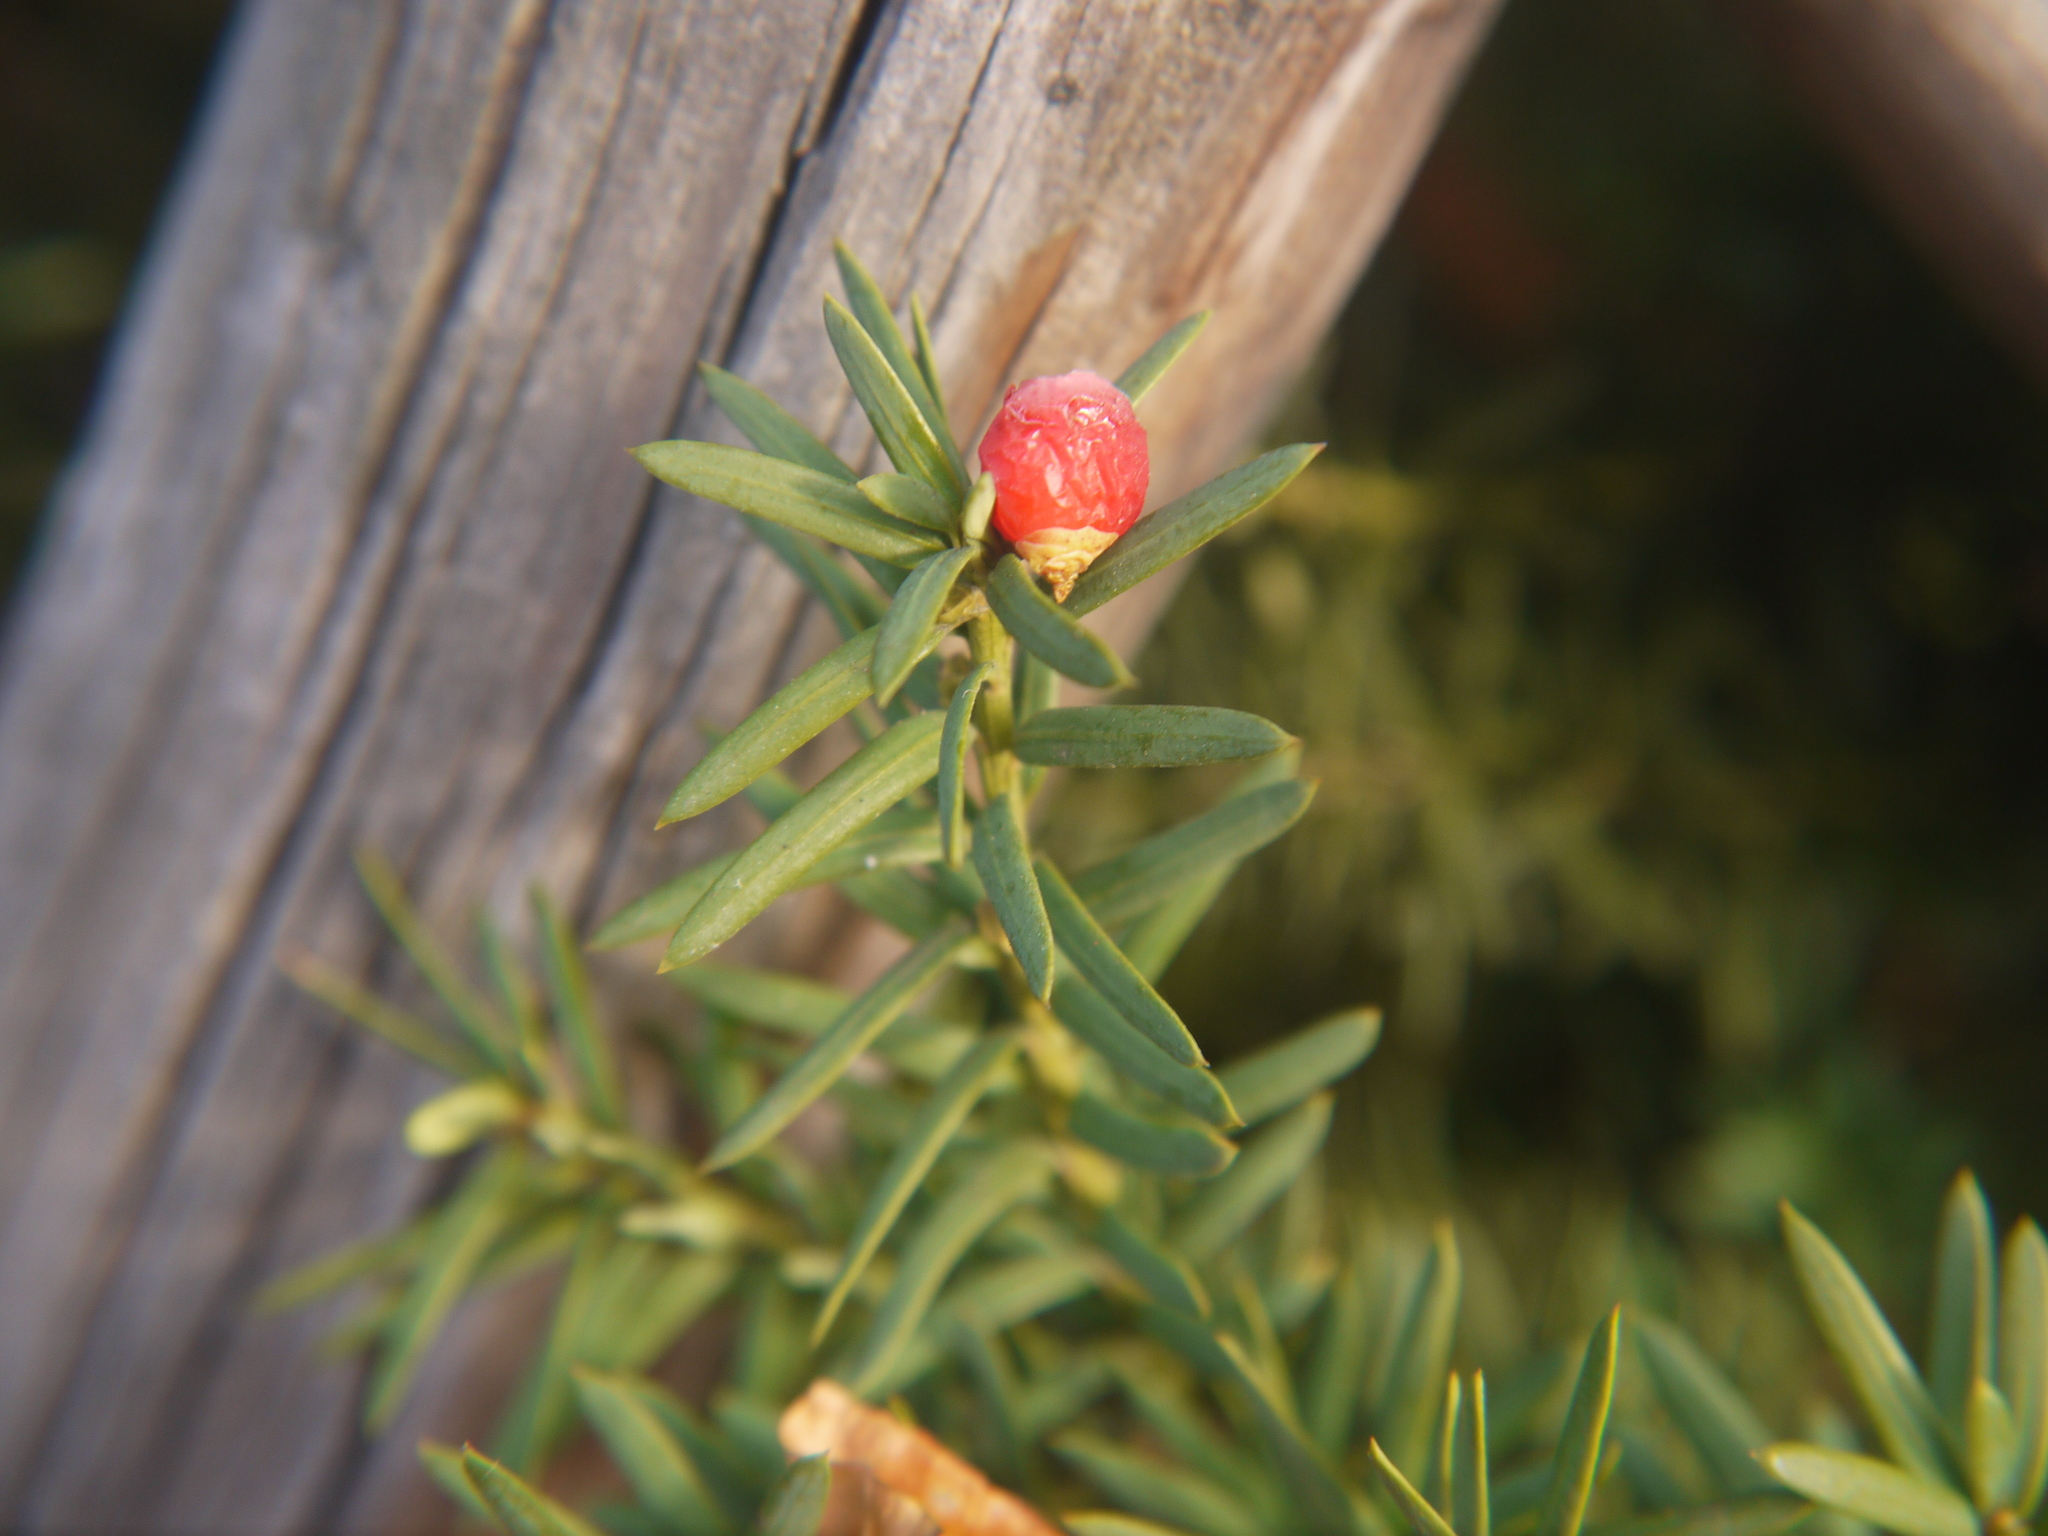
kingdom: Plantae
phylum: Tracheophyta
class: Pinopsida
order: Pinales
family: Taxaceae
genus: Taxus
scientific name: Taxus baccata
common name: Yew
